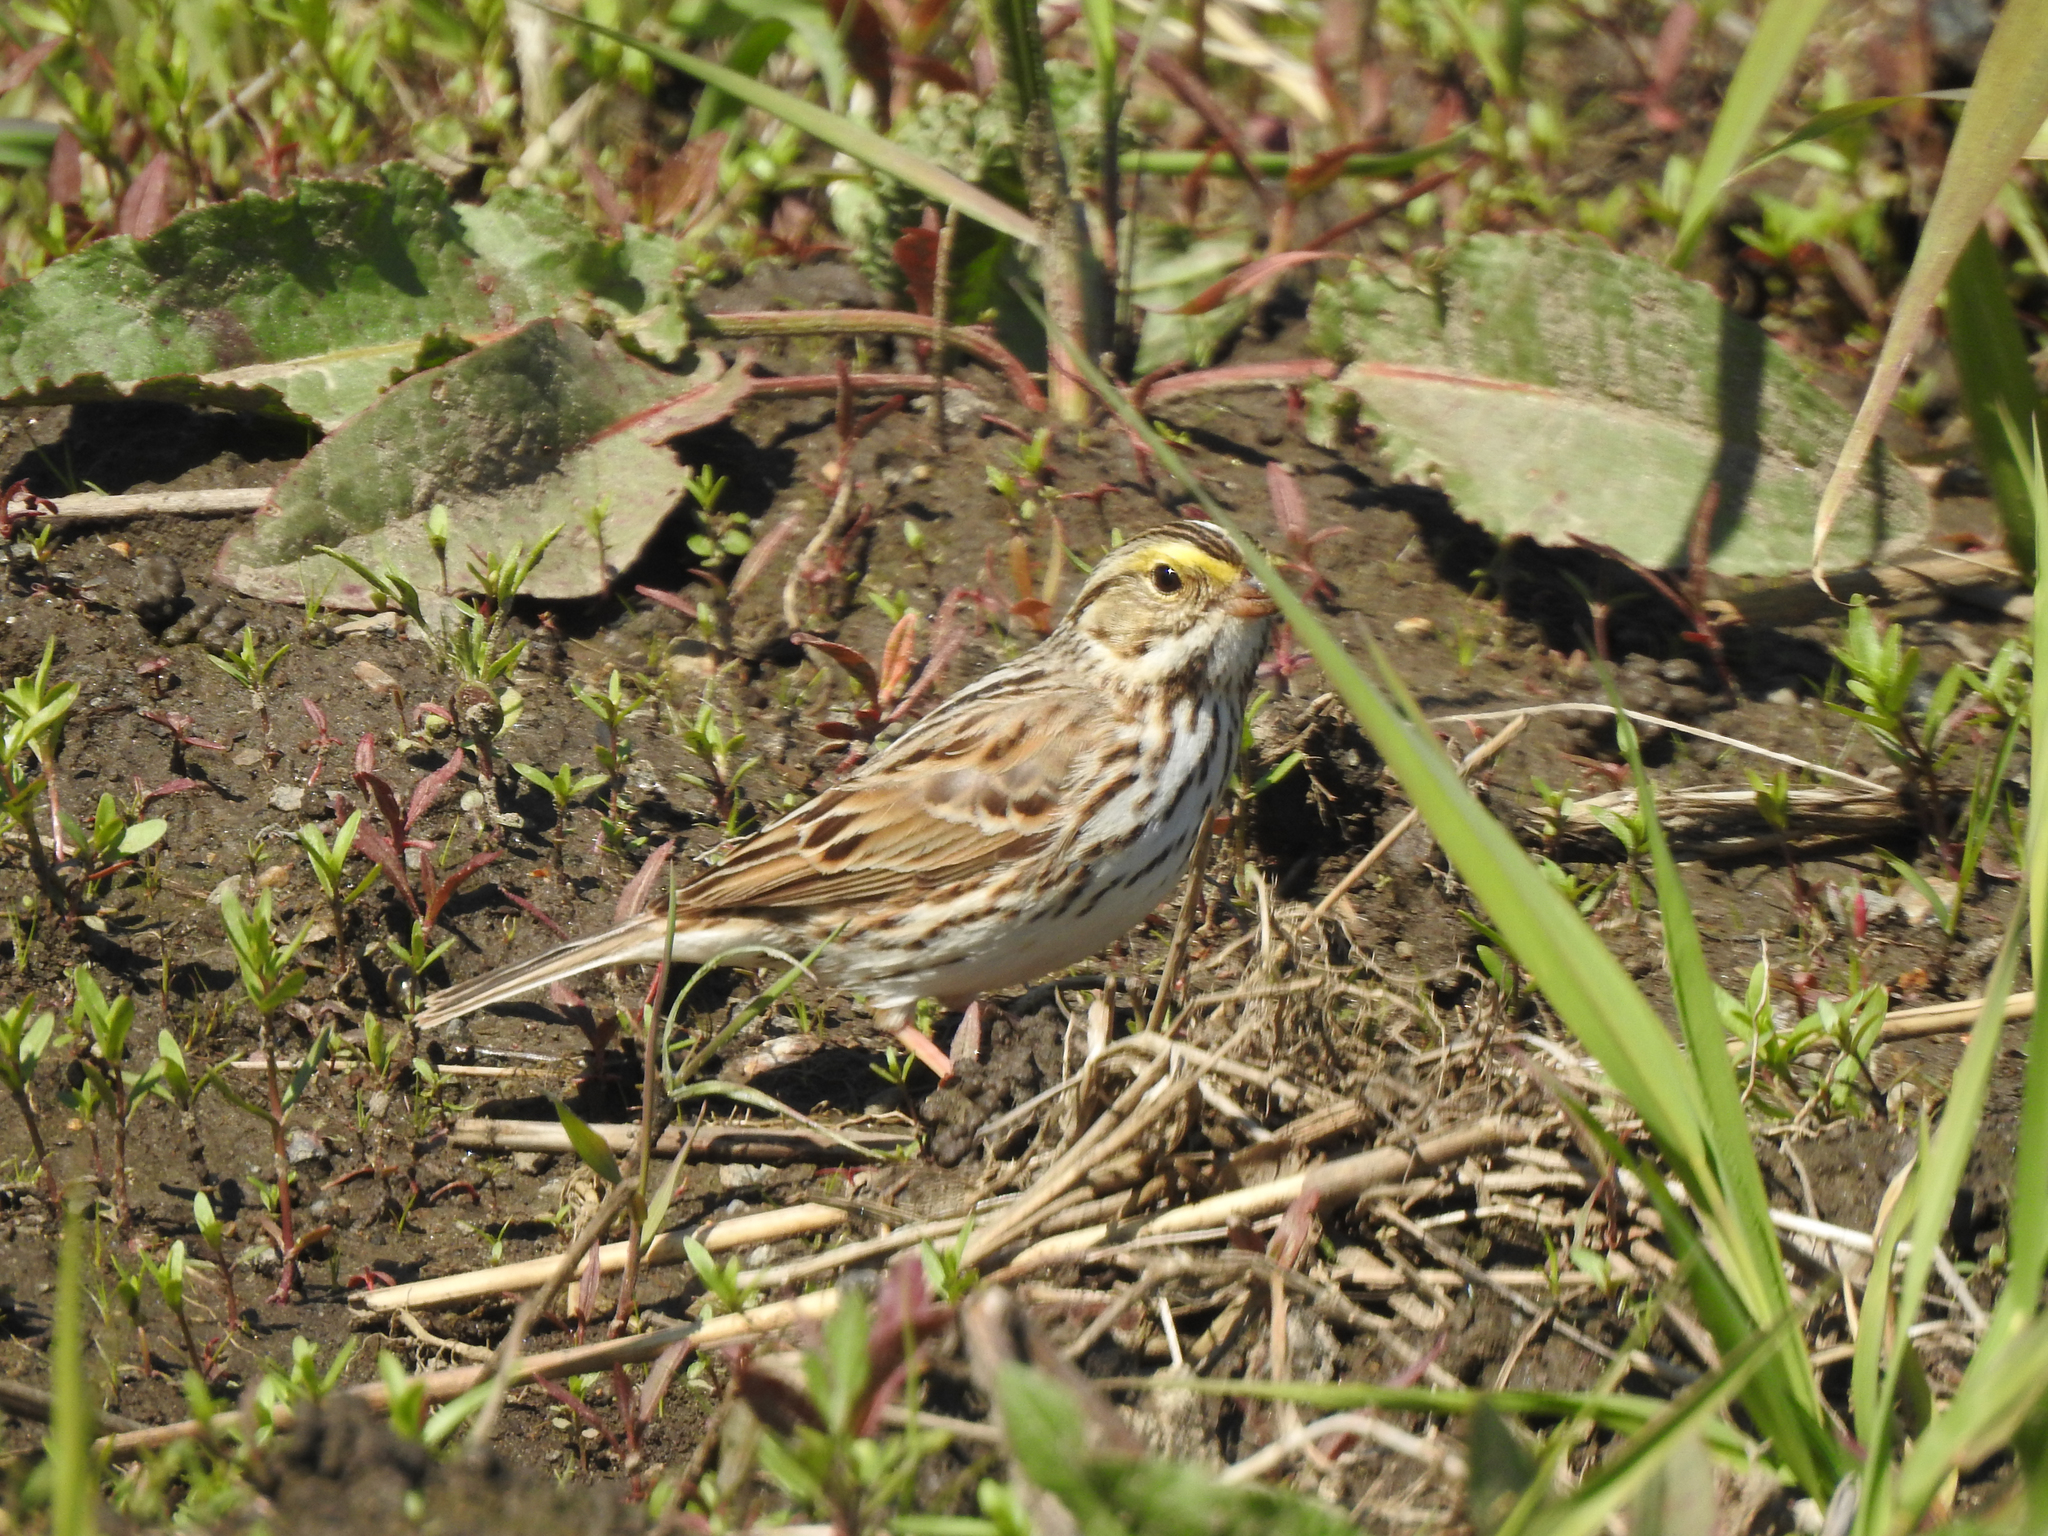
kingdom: Animalia
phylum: Chordata
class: Aves
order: Passeriformes
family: Passerellidae
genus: Passerculus
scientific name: Passerculus sandwichensis
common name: Savannah sparrow
